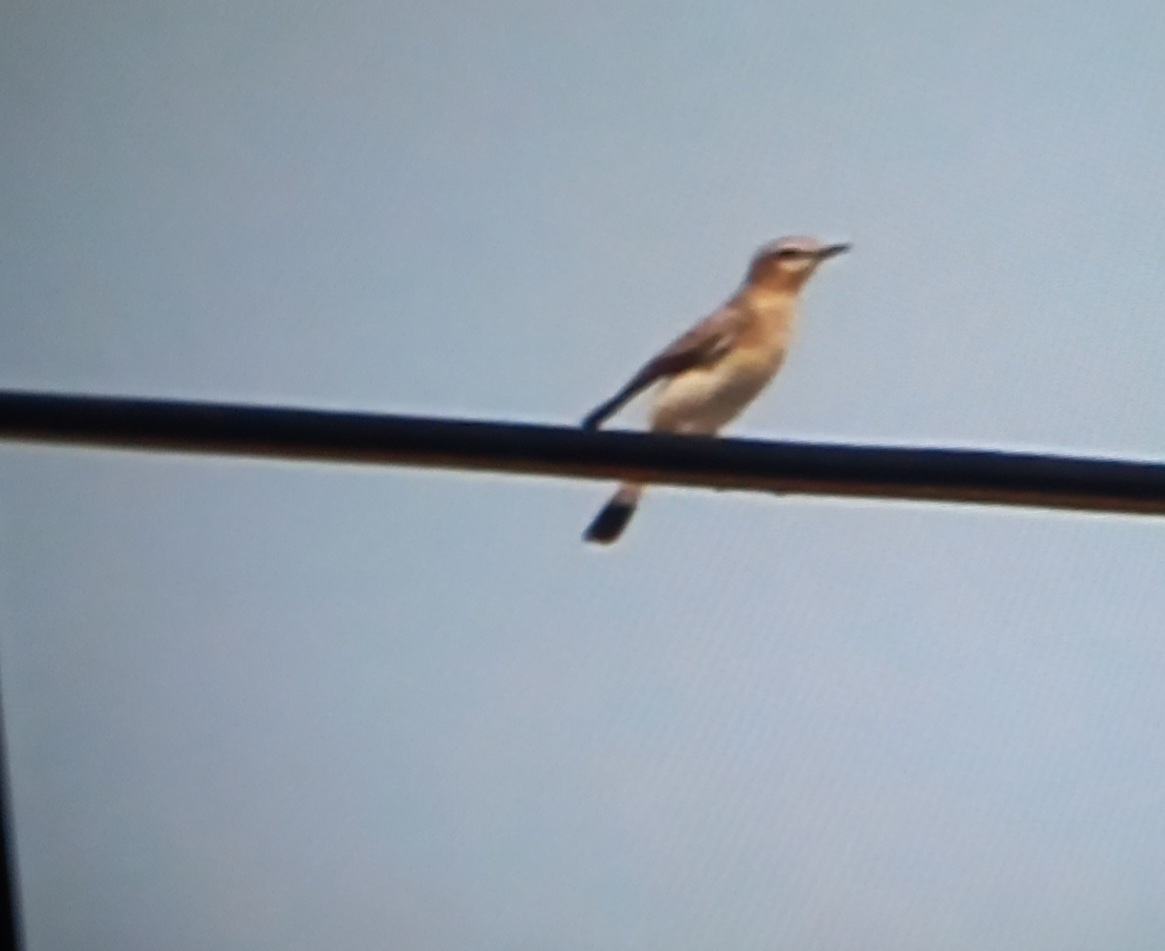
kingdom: Animalia
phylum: Chordata
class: Aves
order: Passeriformes
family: Muscicapidae
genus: Oenanthe
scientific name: Oenanthe oenanthe
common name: Northern wheatear
